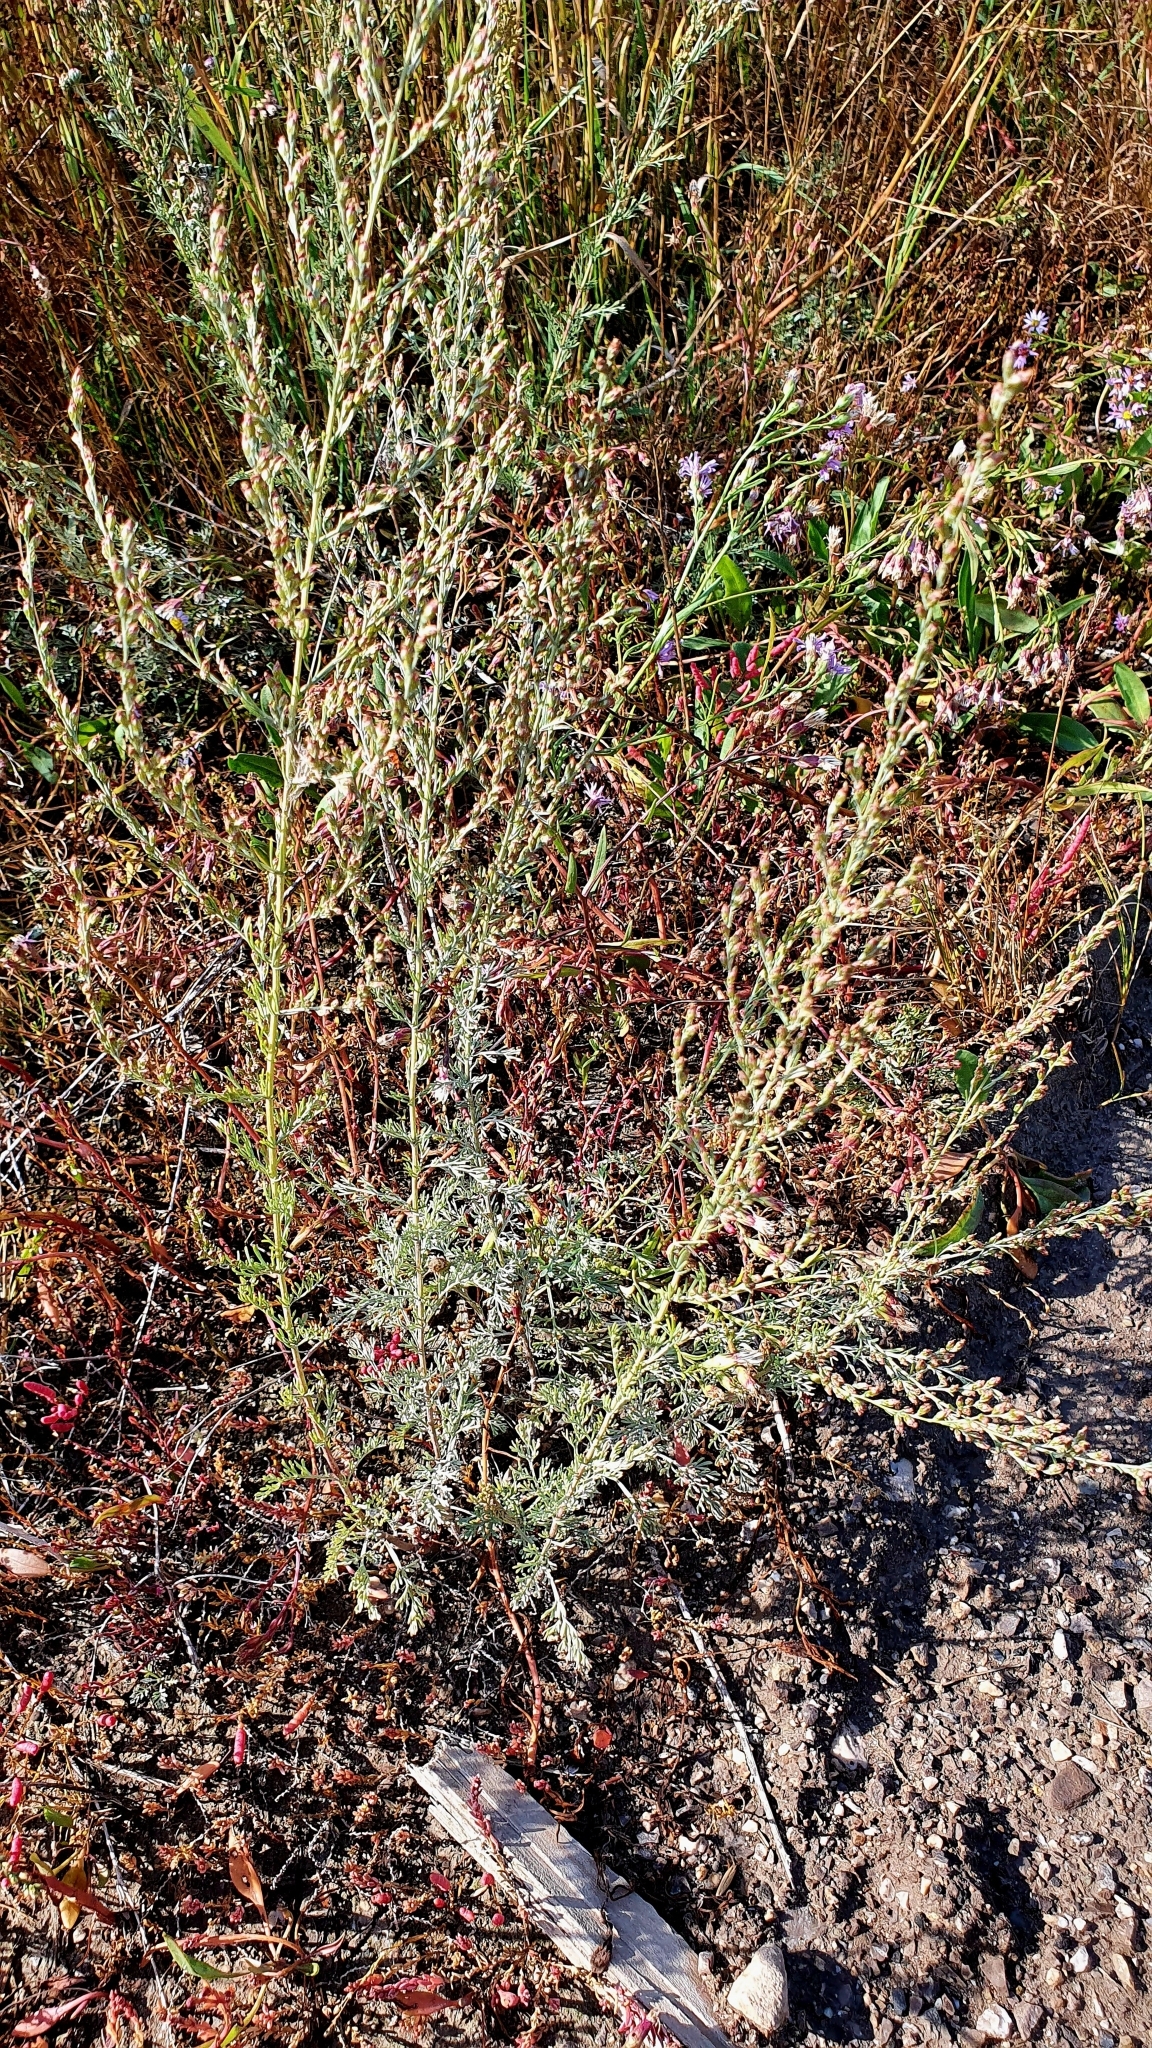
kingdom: Plantae
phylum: Tracheophyta
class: Magnoliopsida
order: Asterales
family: Asteraceae
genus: Artemisia
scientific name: Artemisia nitrosa
